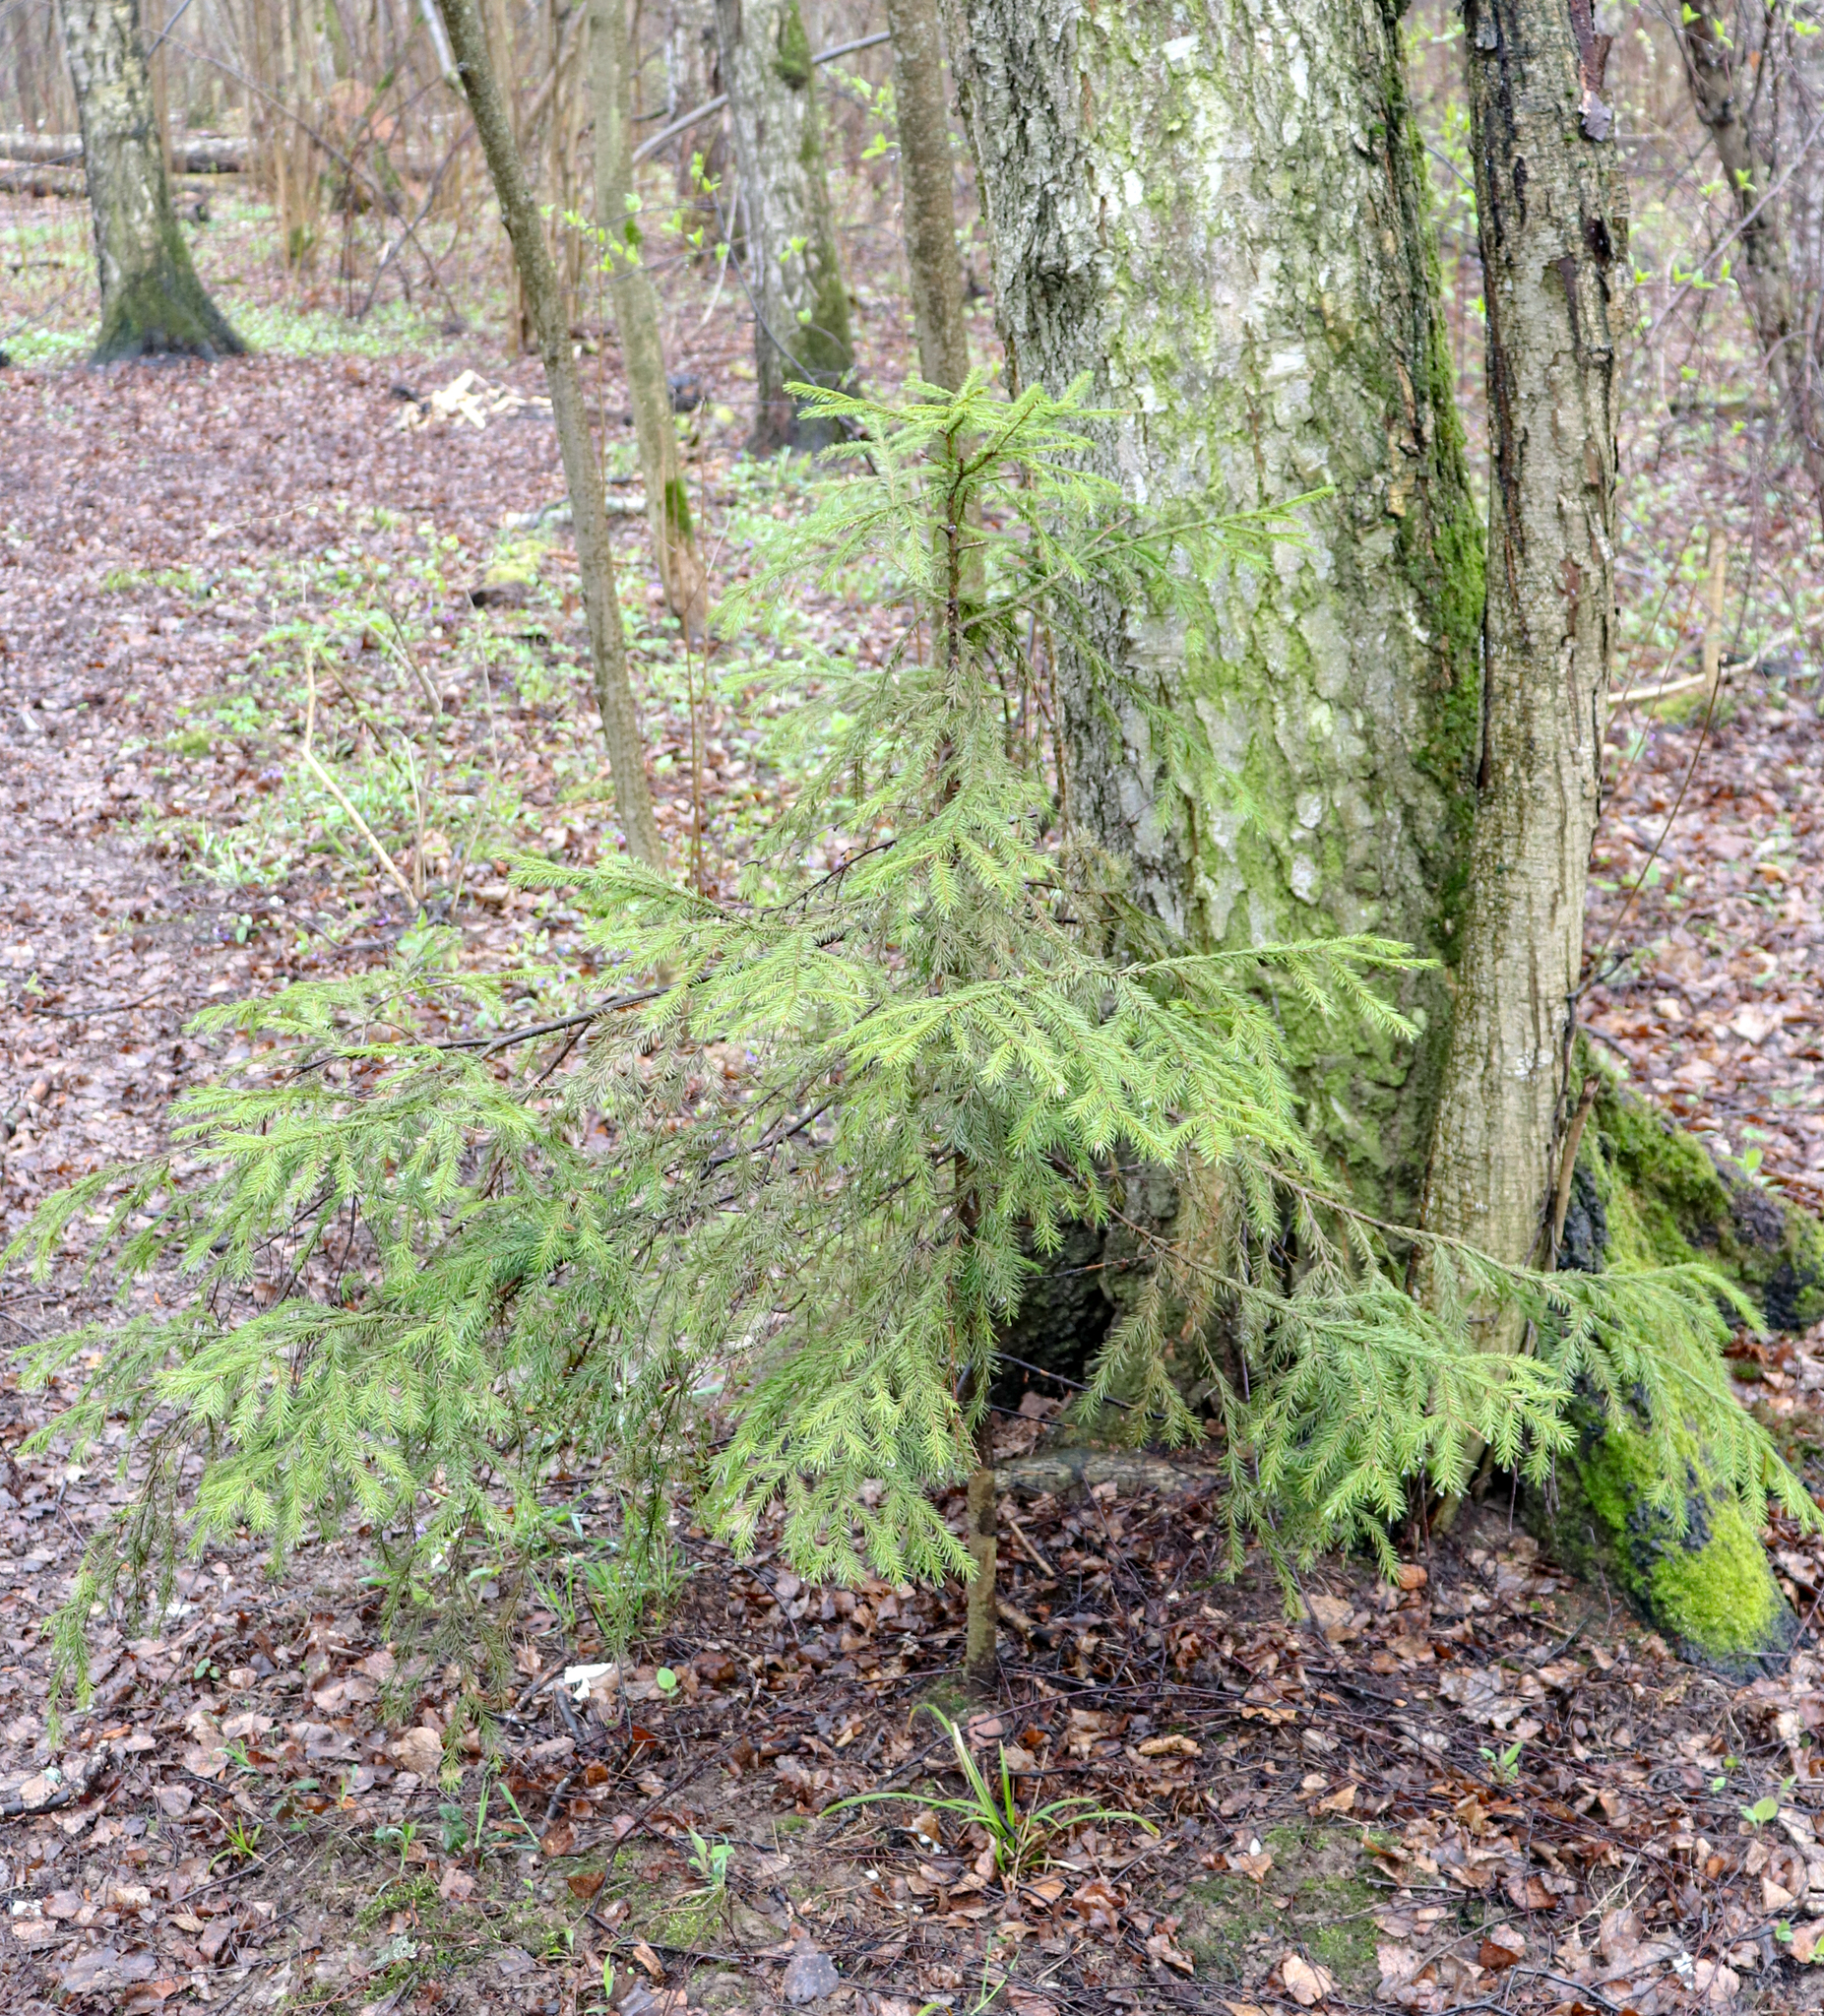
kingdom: Plantae
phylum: Tracheophyta
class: Pinopsida
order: Pinales
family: Pinaceae
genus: Picea
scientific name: Picea abies
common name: Norway spruce
